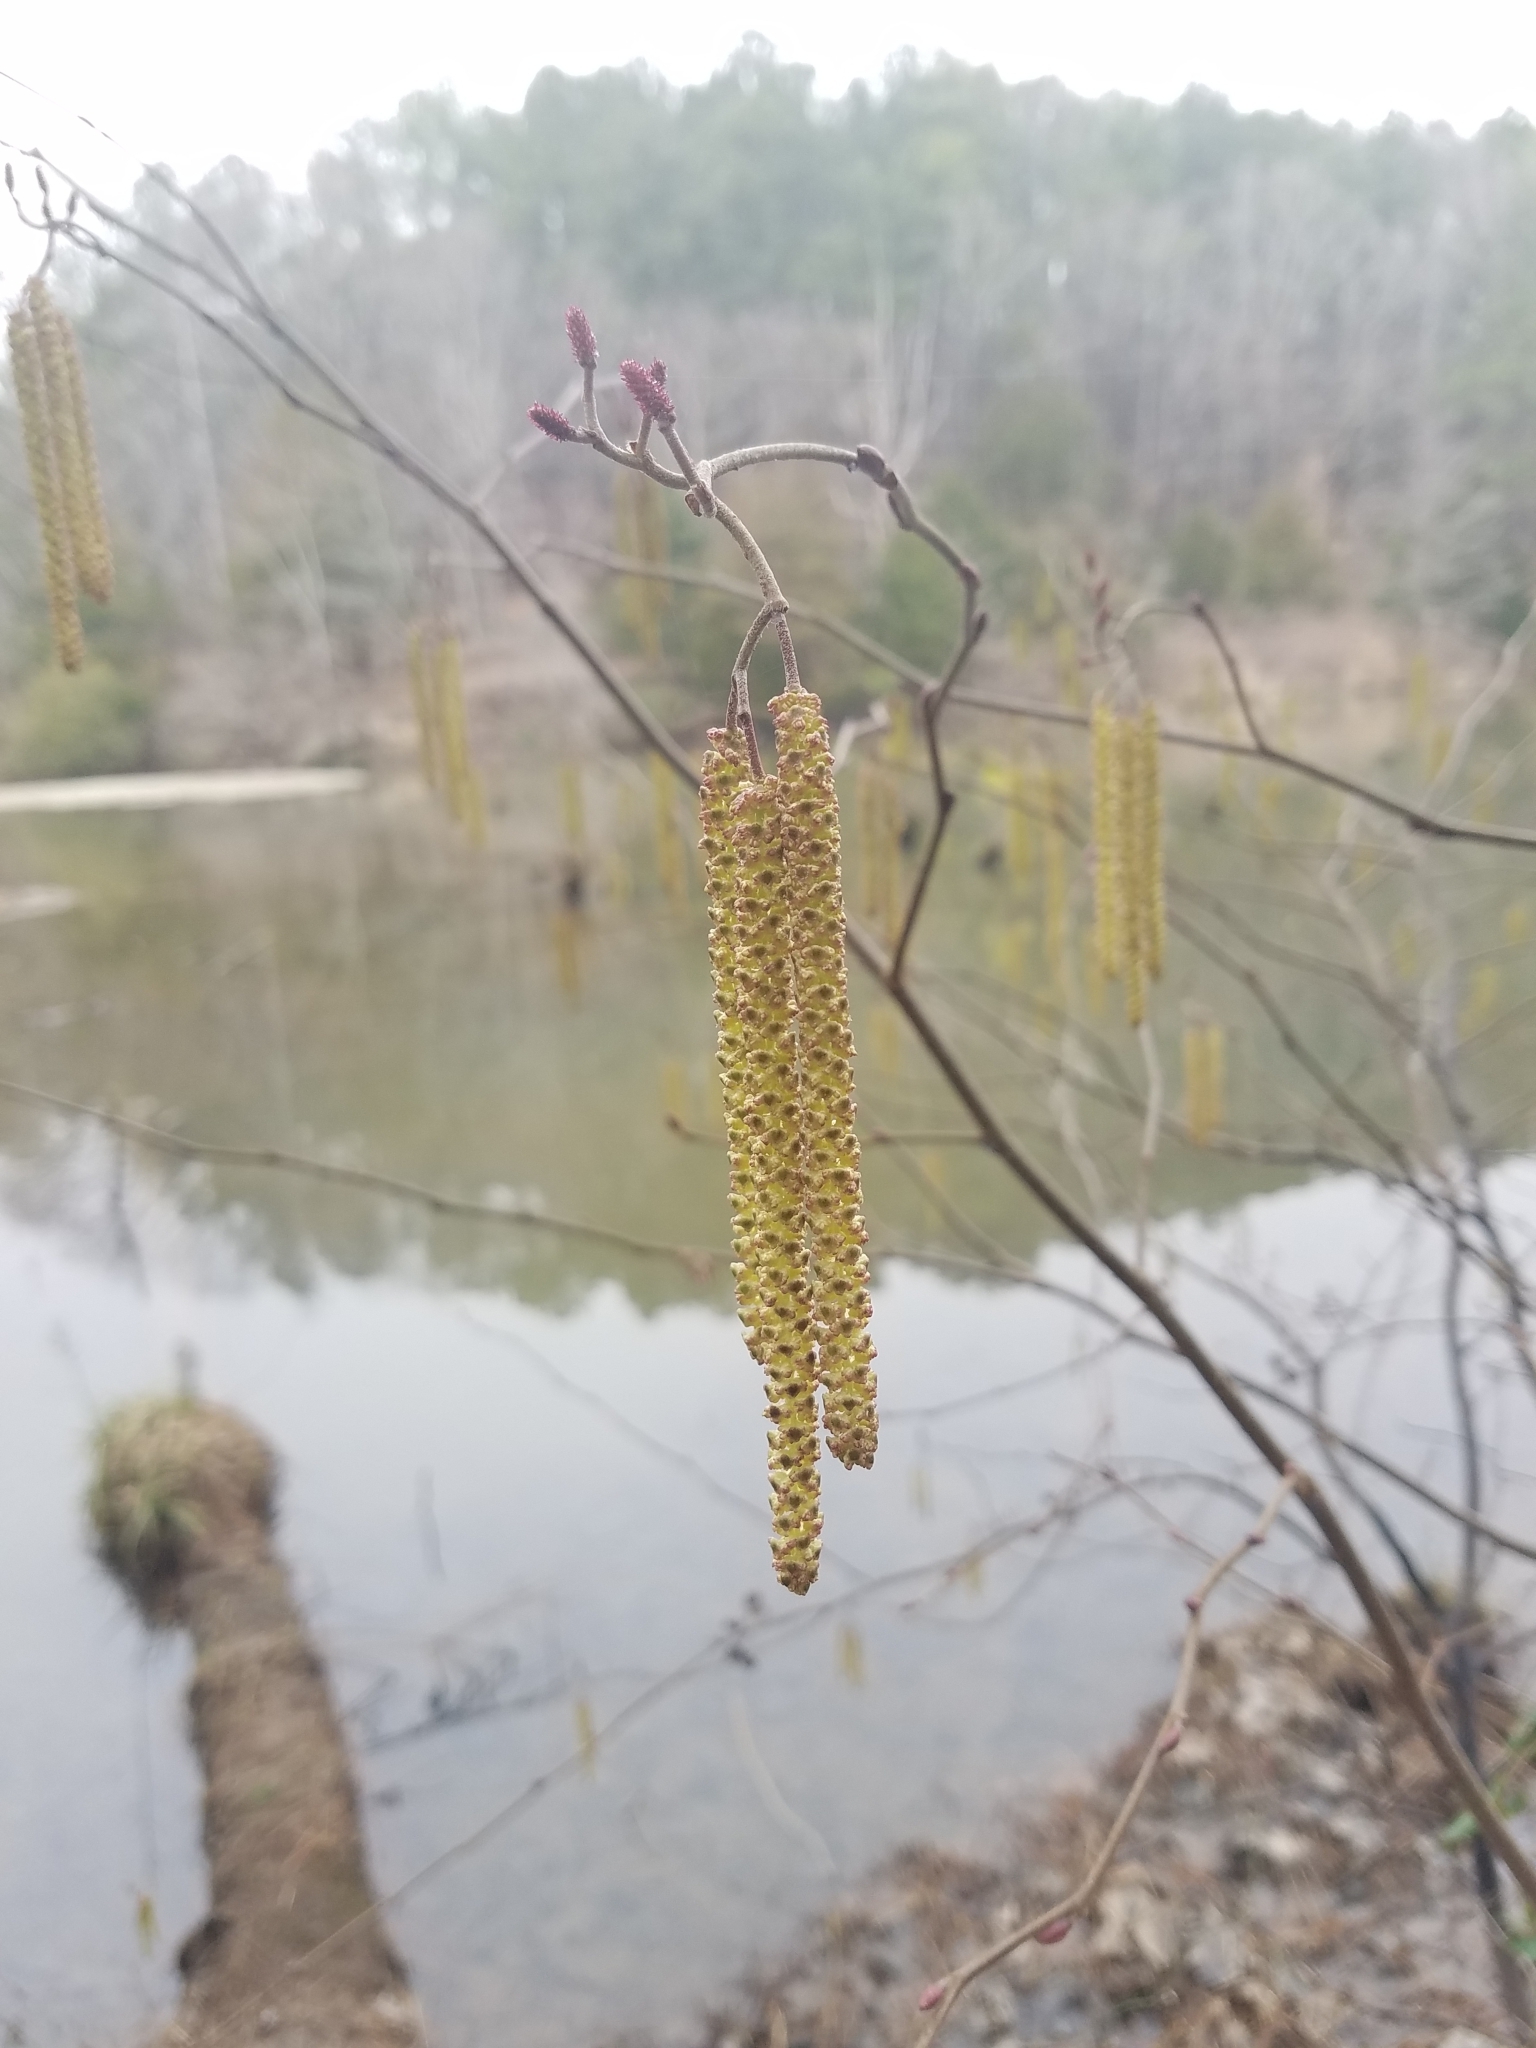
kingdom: Plantae
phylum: Tracheophyta
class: Magnoliopsida
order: Fagales
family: Betulaceae
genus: Alnus
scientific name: Alnus serrulata
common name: Hazel alder
